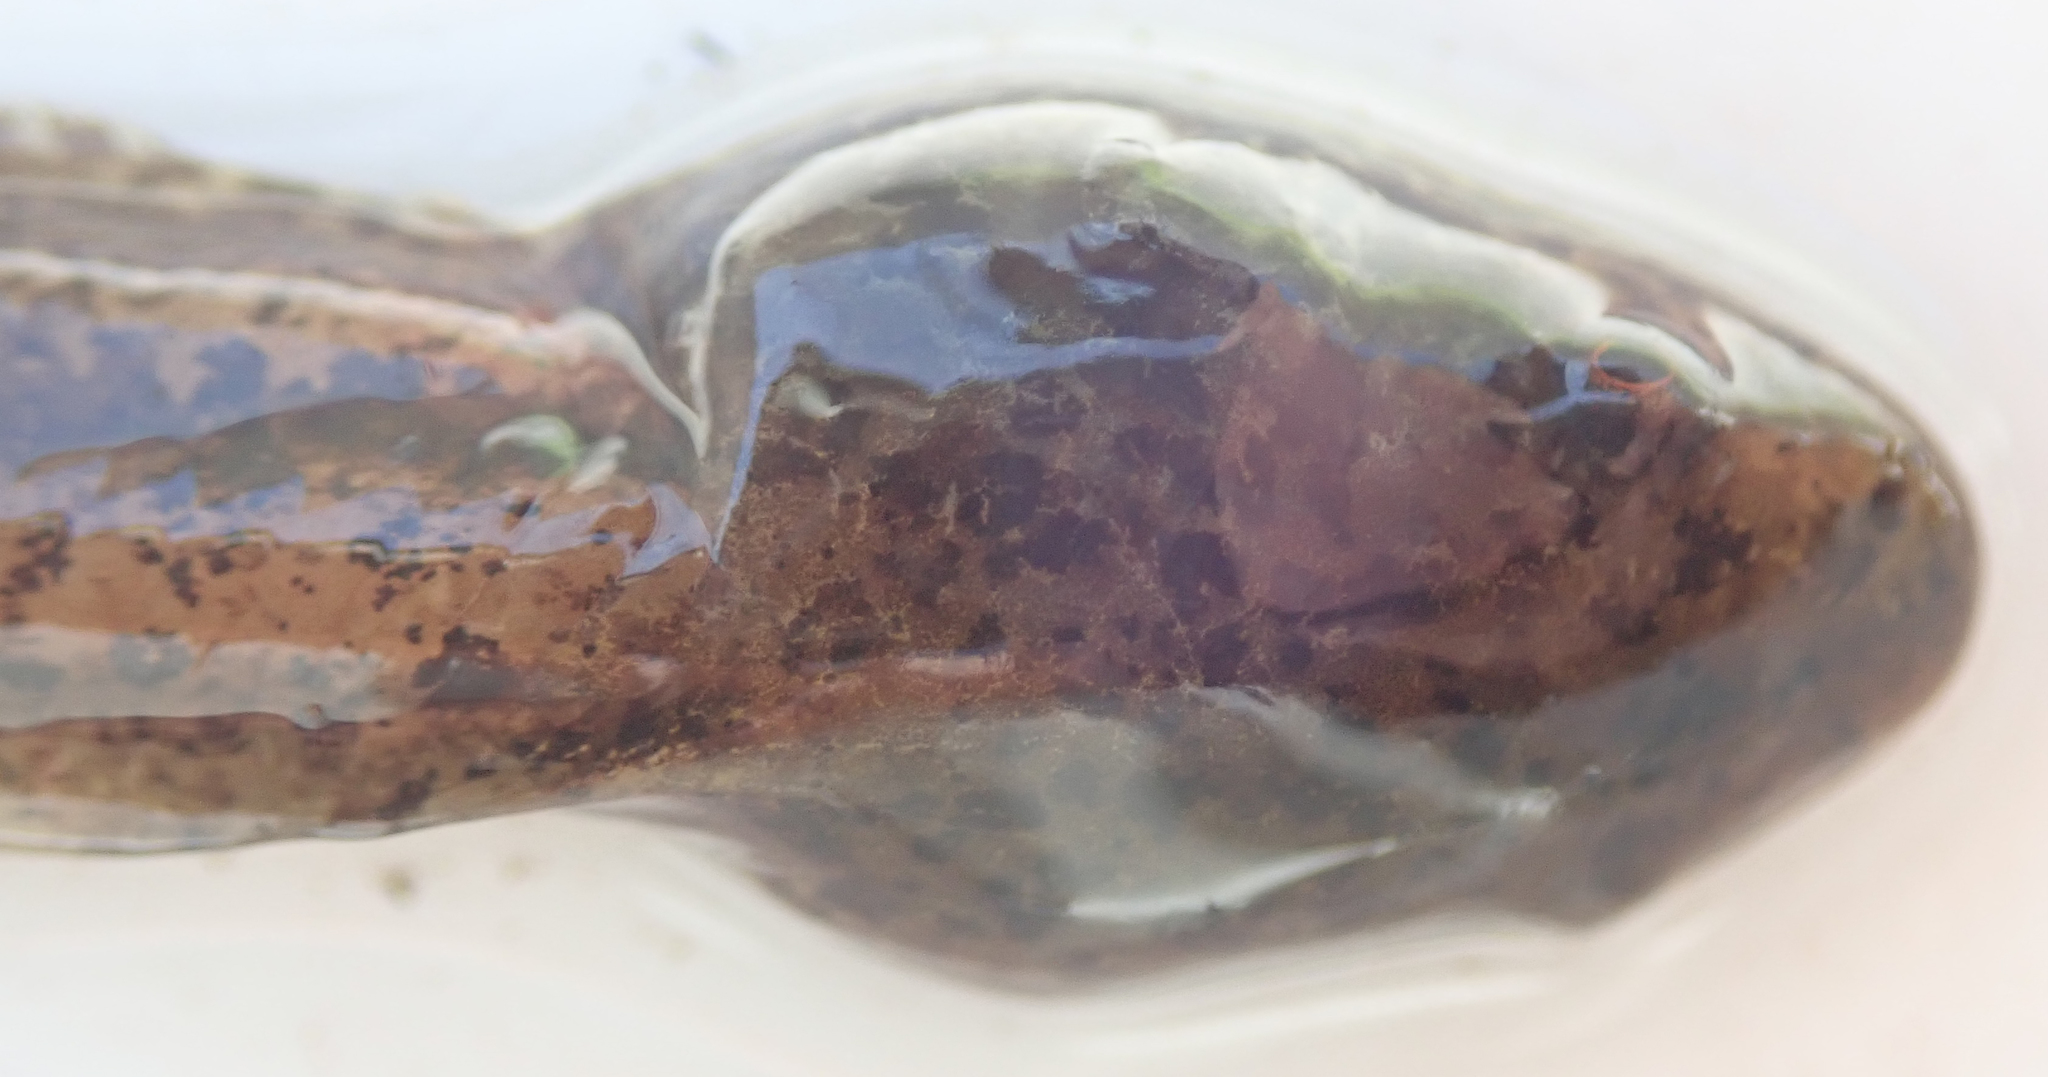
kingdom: Animalia
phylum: Chordata
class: Amphibia
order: Anura
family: Hyperoliidae
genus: Hyperolius
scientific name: Hyperolius parallelus
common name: Angolan reed frog
